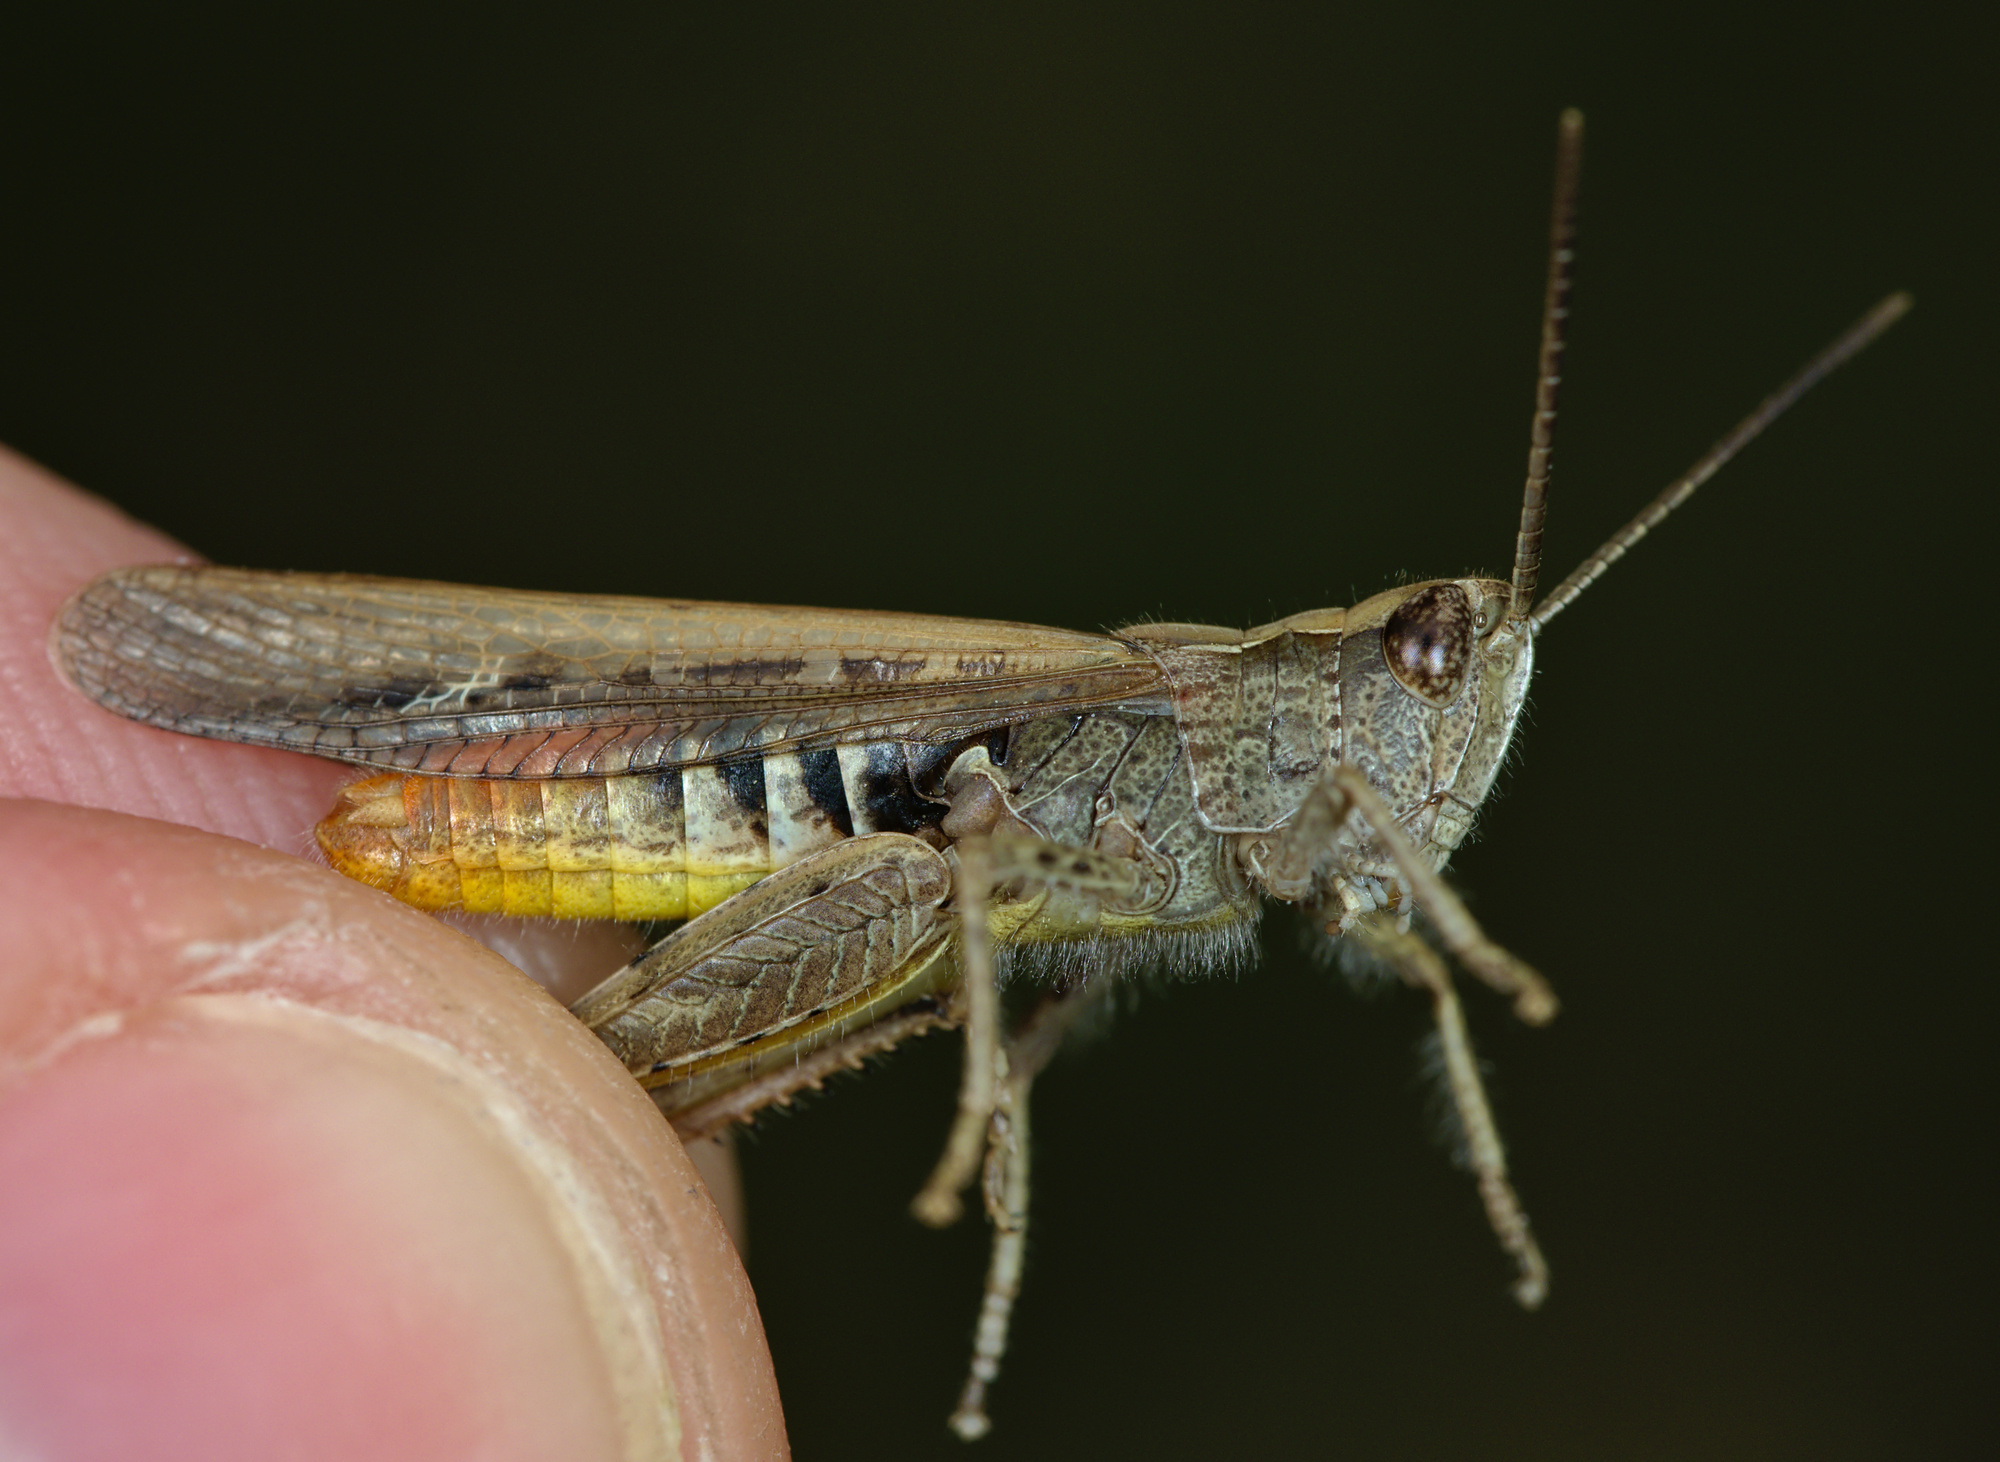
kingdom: Animalia
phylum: Arthropoda
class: Insecta
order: Orthoptera
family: Acrididae
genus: Chorthippus
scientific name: Chorthippus brunneus
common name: Field grasshopper
